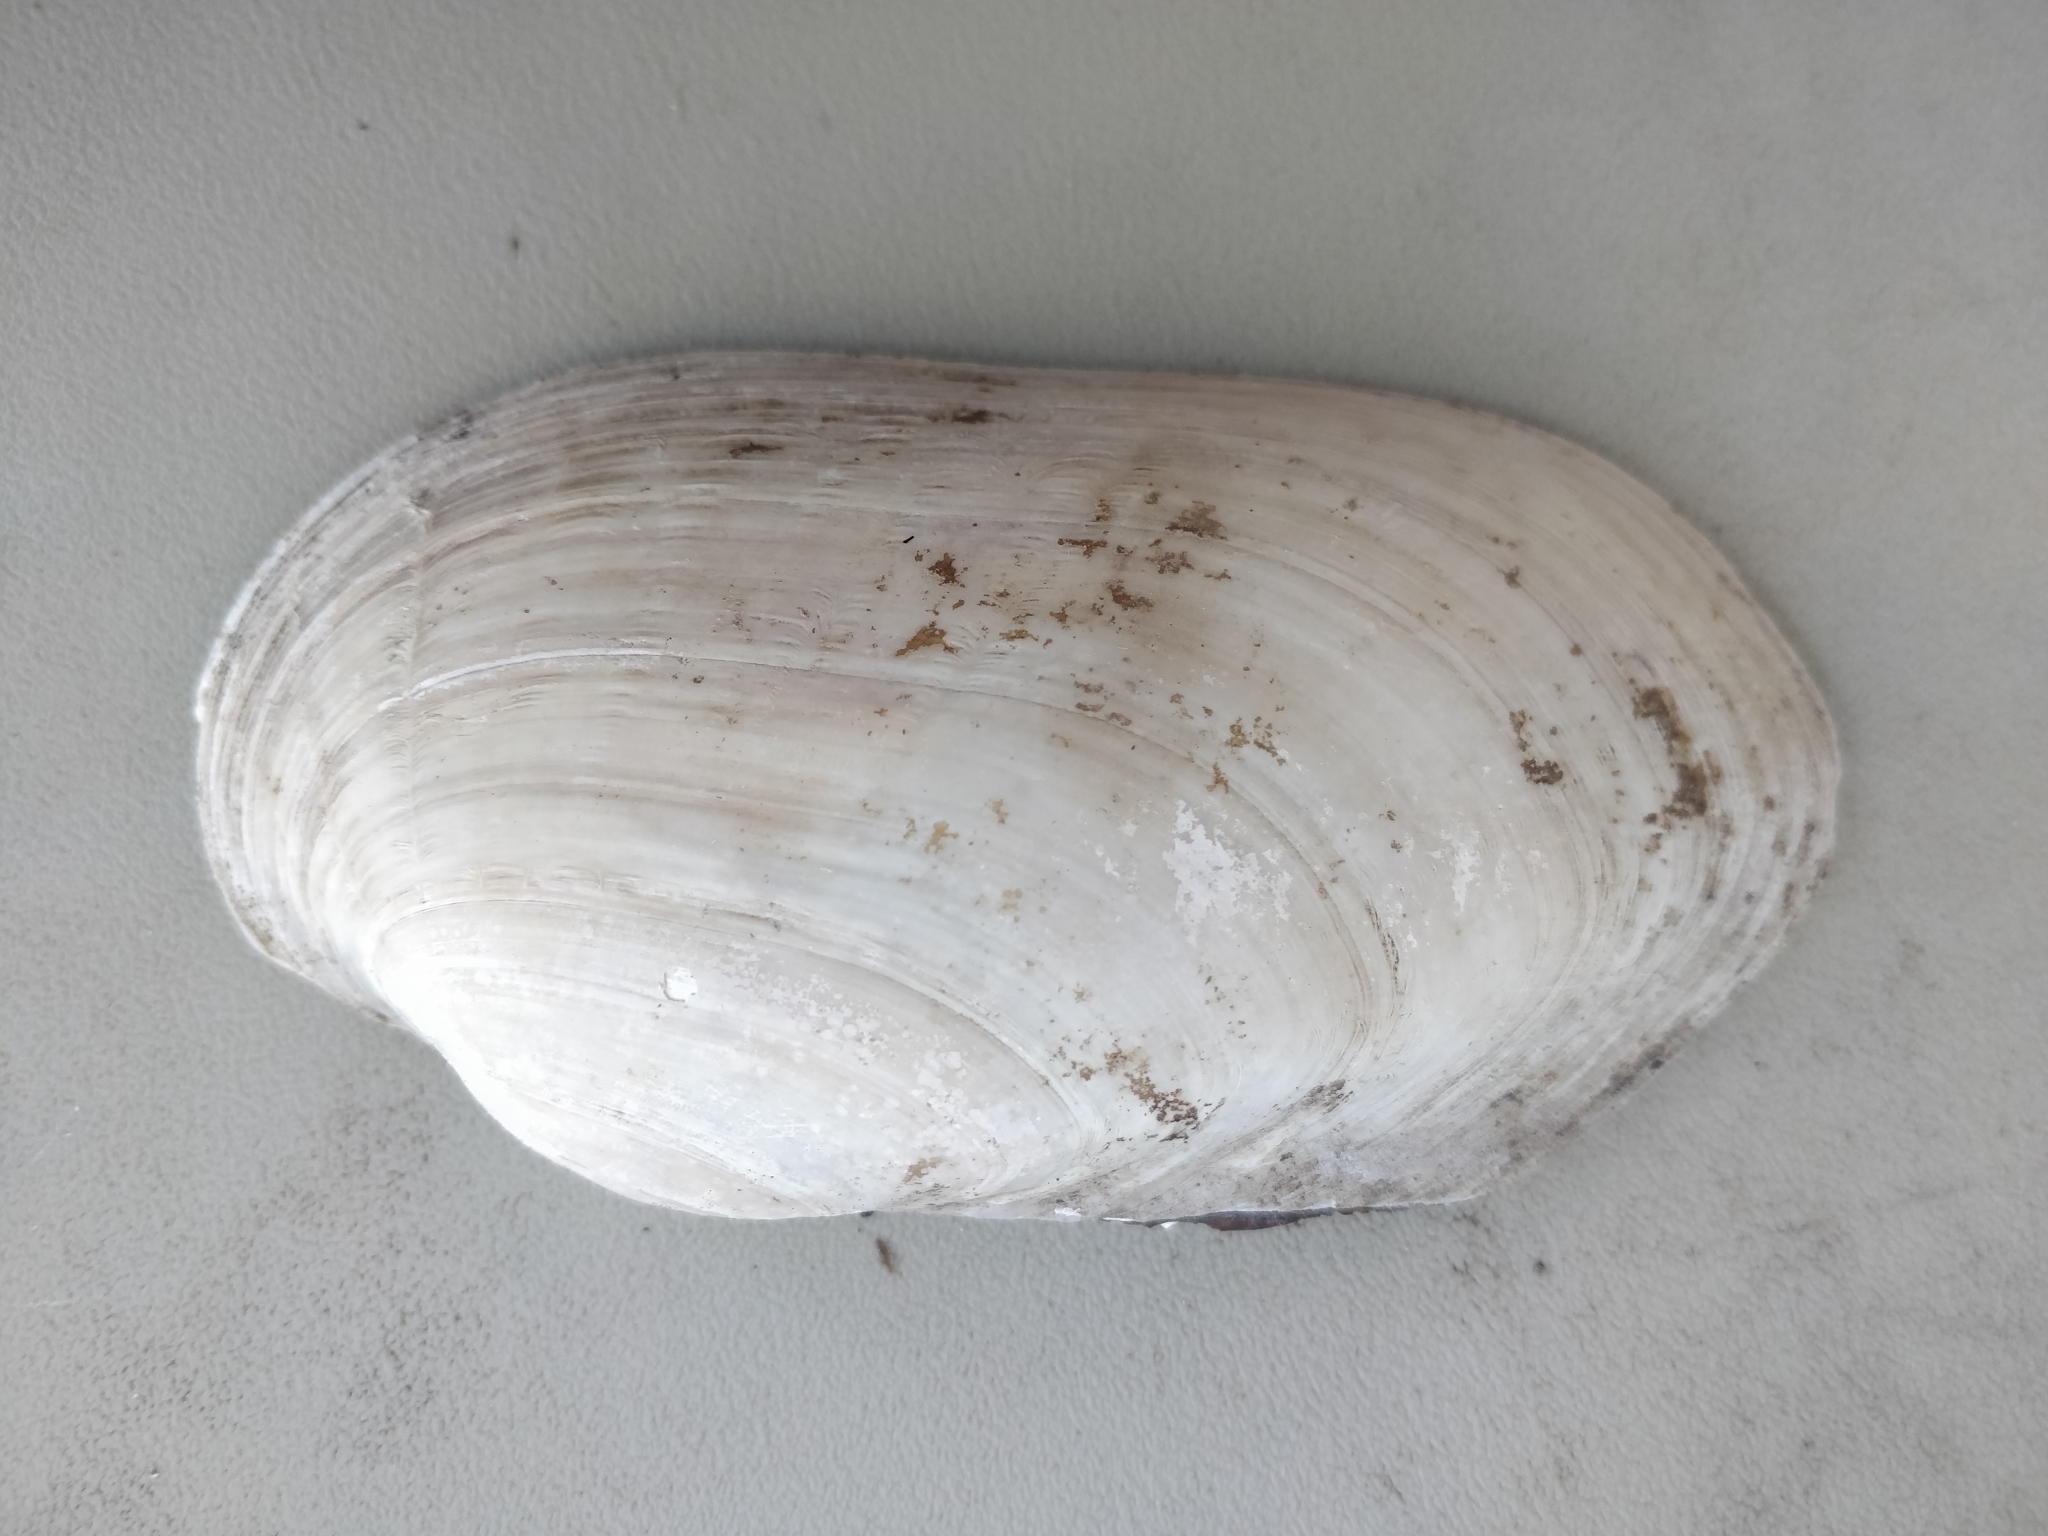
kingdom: Animalia
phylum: Mollusca
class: Bivalvia
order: Unionida
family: Unionidae
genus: Lampsilis
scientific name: Lampsilis siliquoidea
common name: Fatmucket
